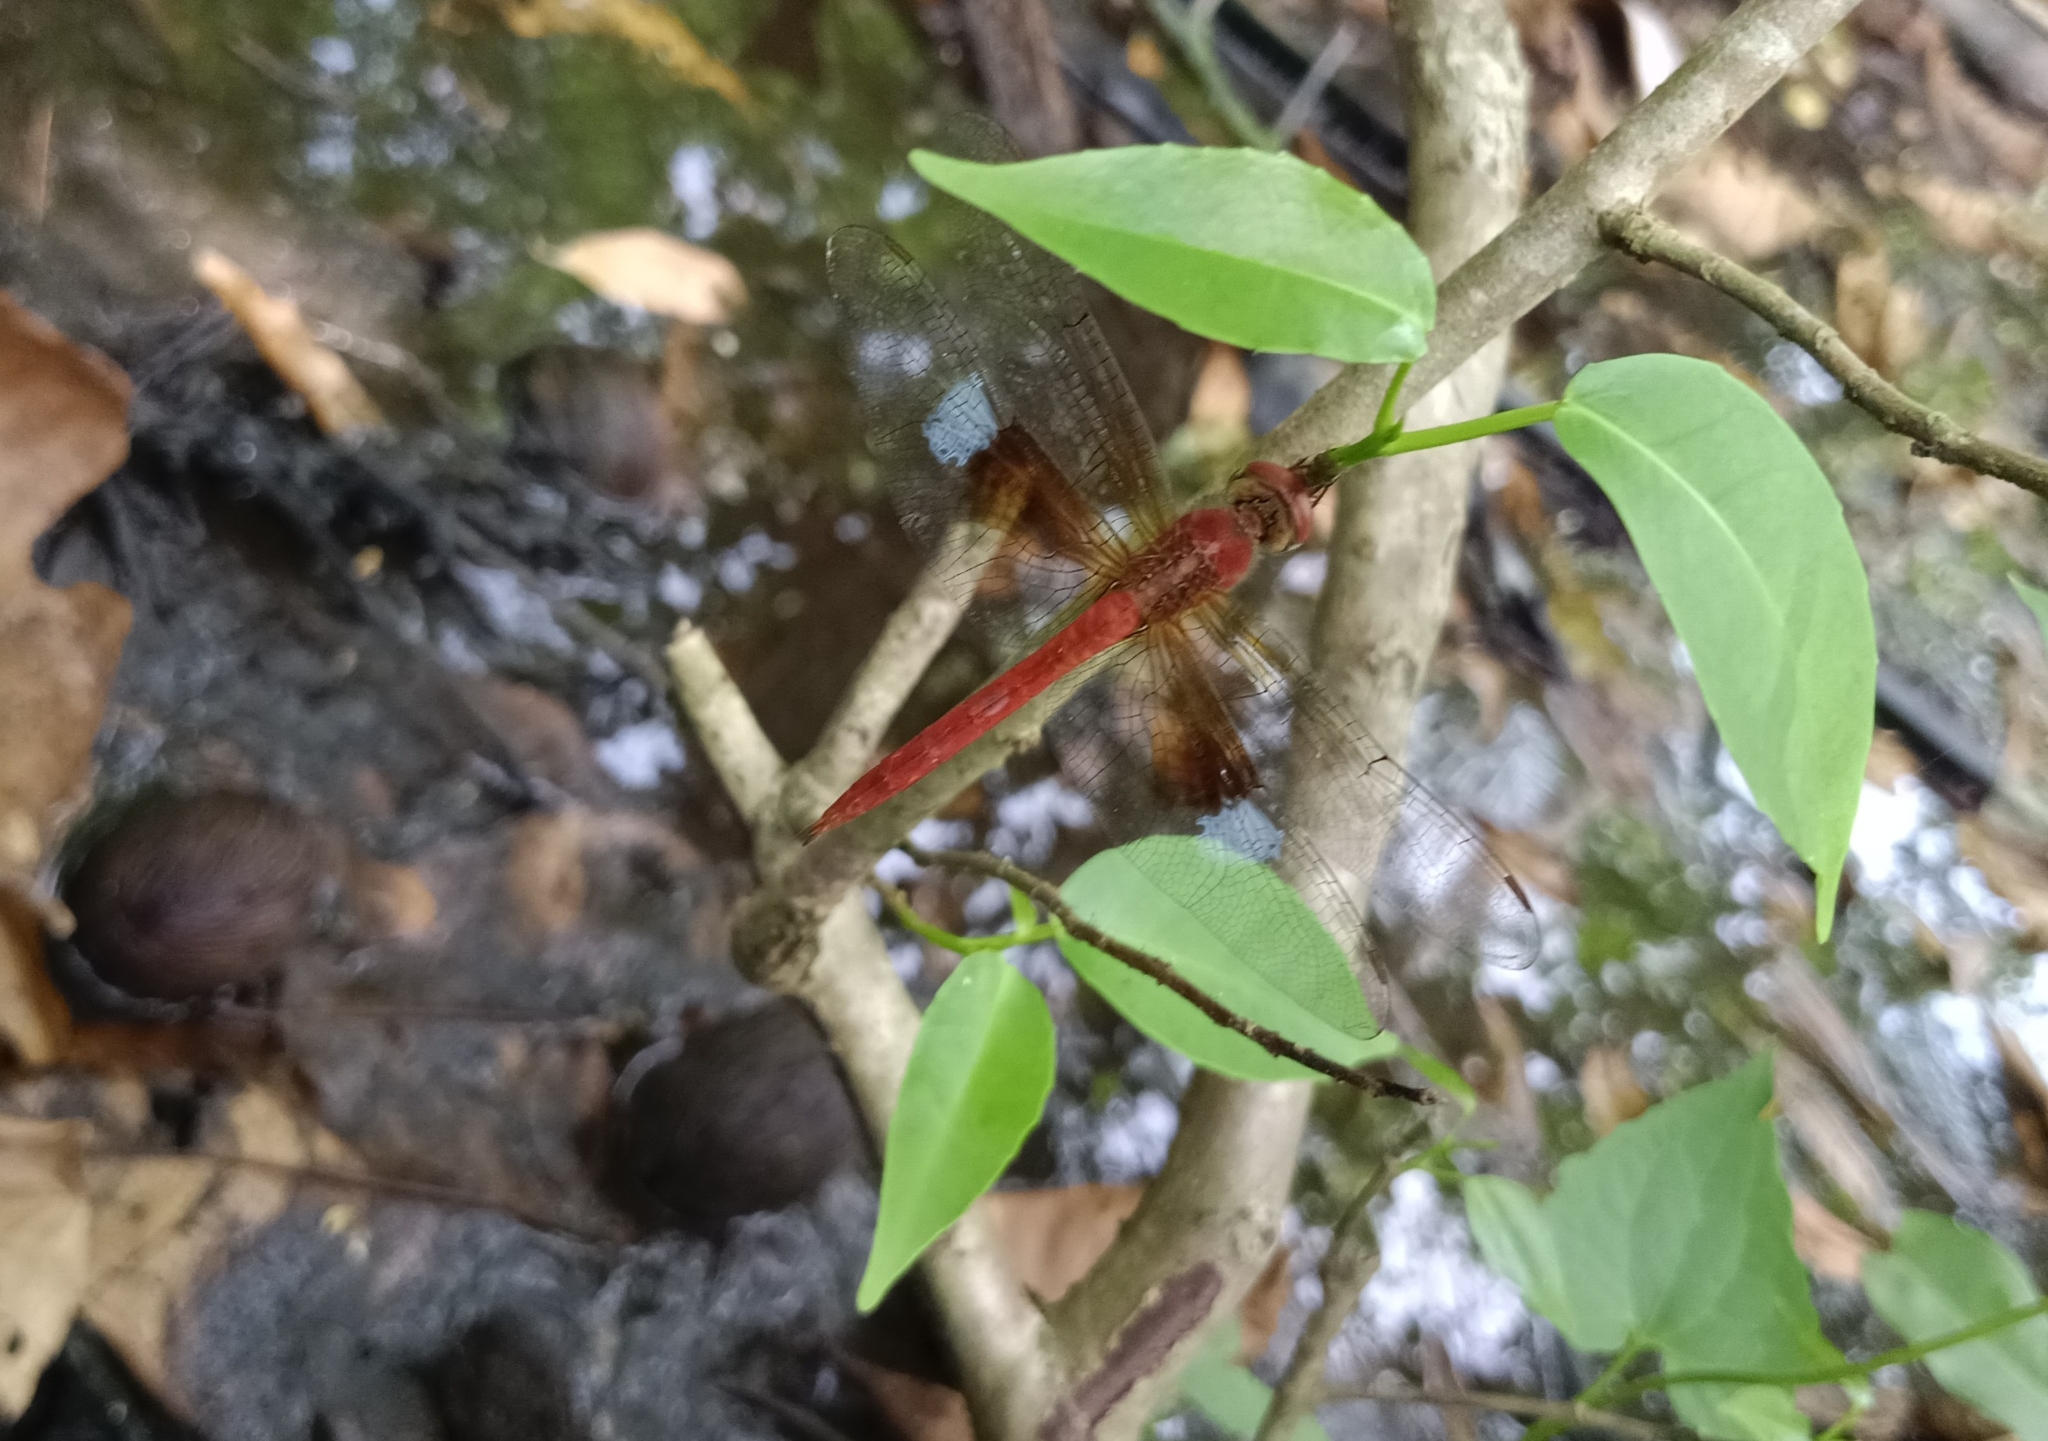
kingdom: Animalia
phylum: Arthropoda
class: Insecta
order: Odonata
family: Libellulidae
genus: Tholymis
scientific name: Tholymis tillarga
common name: Coral-tailed cloud wing
